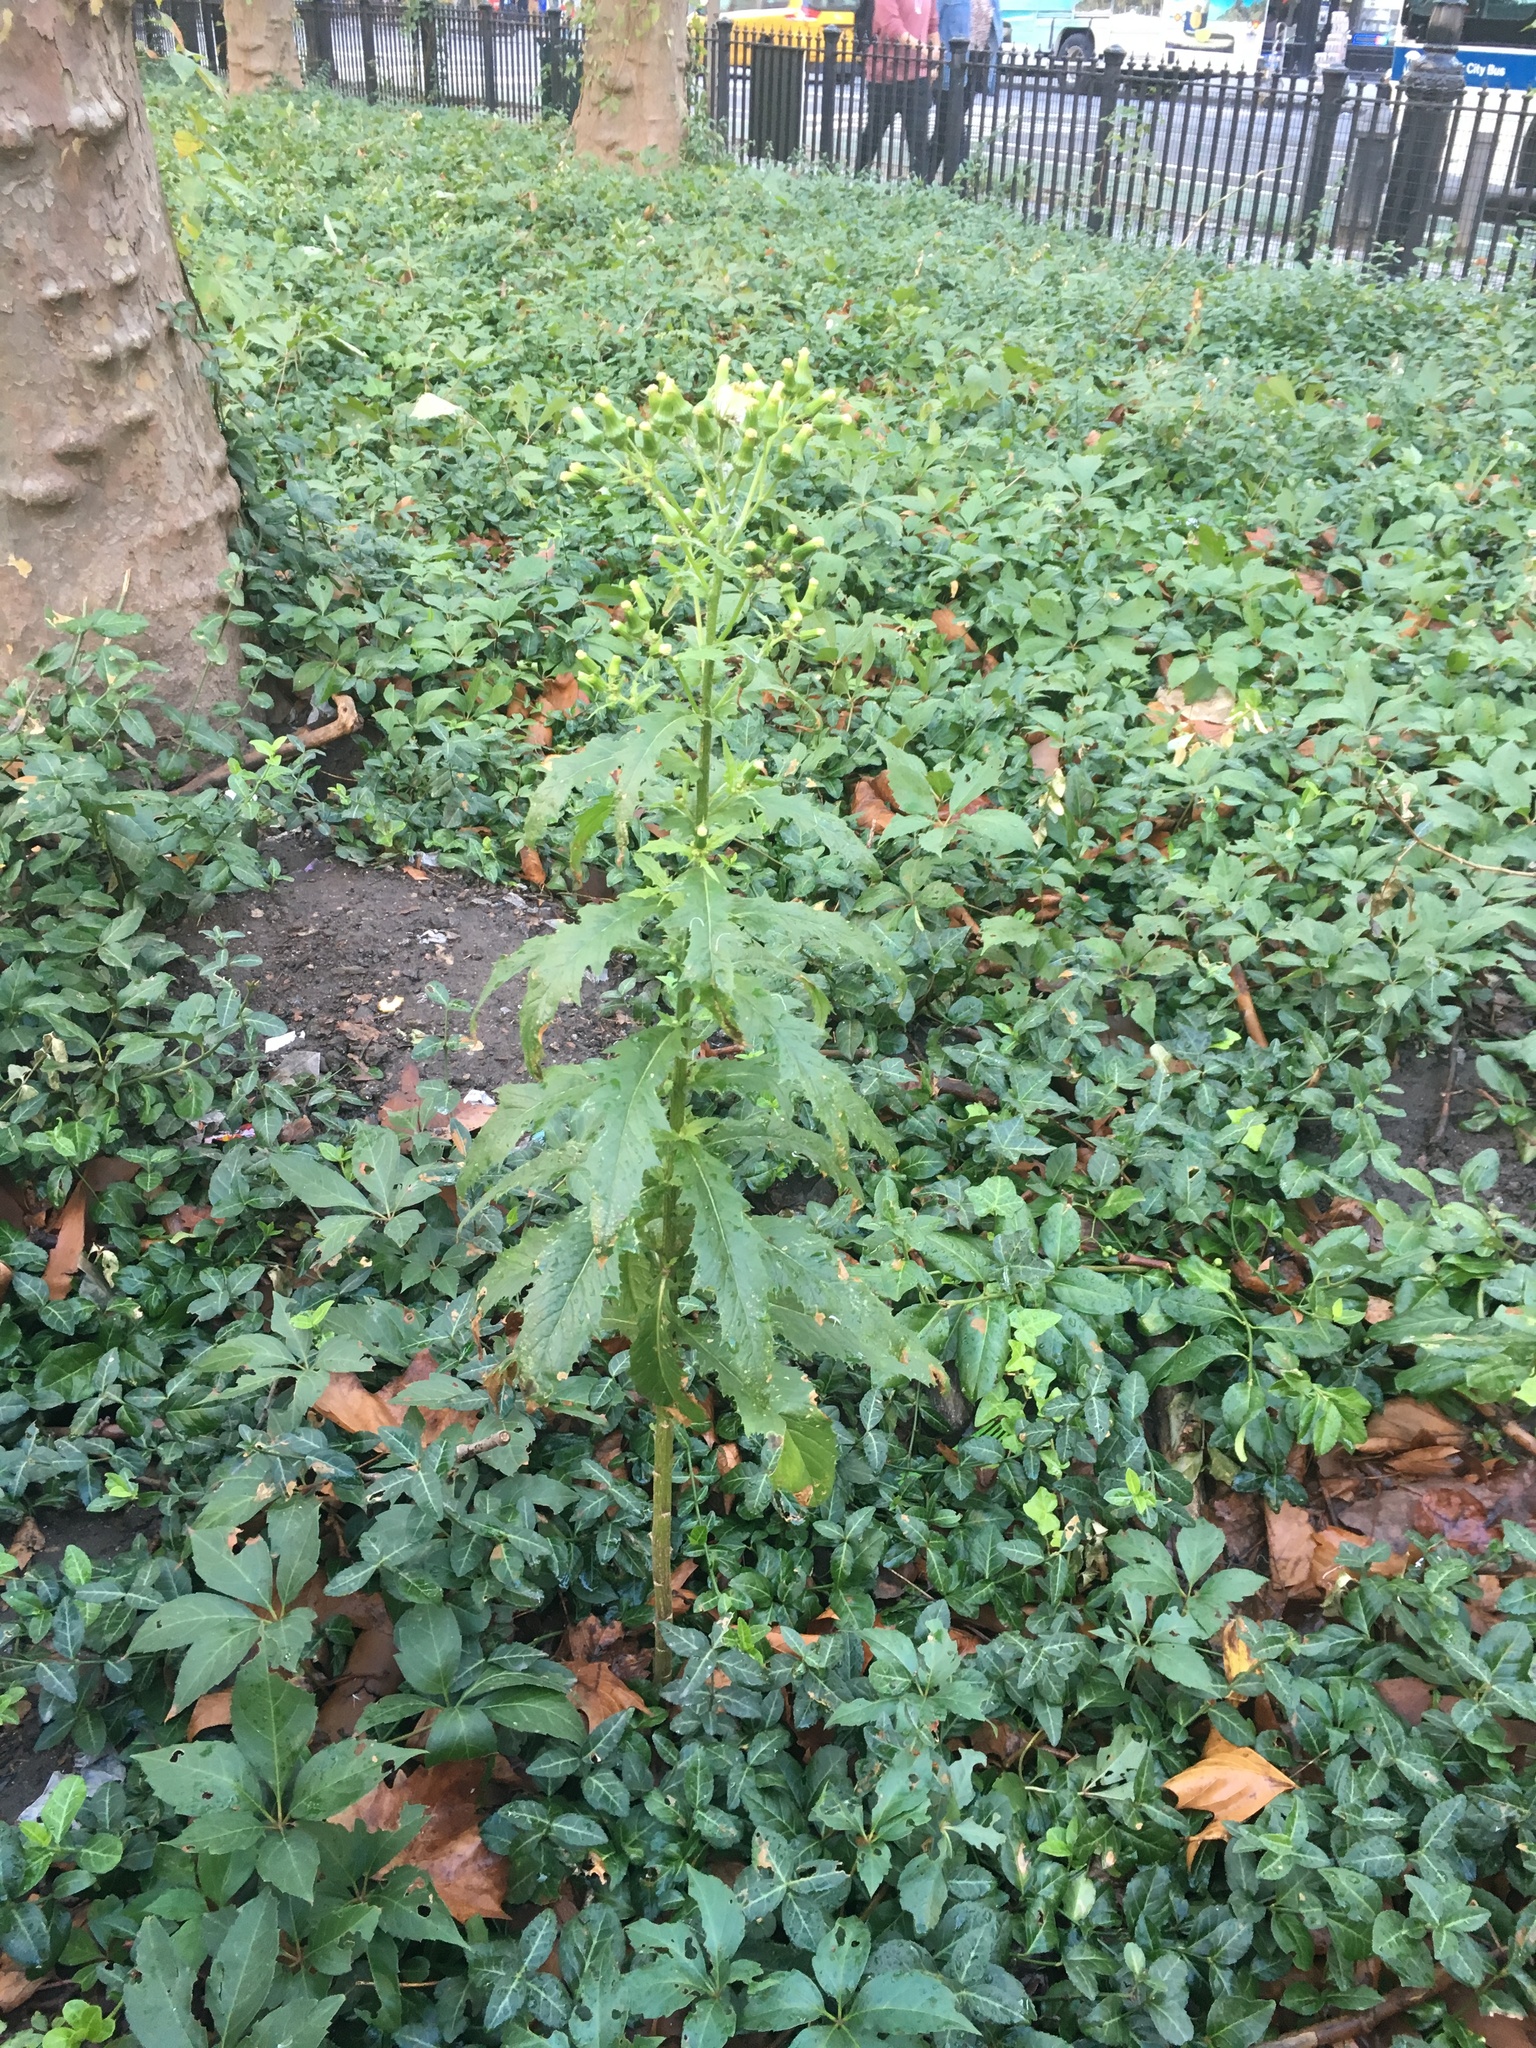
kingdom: Plantae
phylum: Tracheophyta
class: Magnoliopsida
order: Asterales
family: Asteraceae
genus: Erechtites
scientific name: Erechtites hieraciifolius
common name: American burnweed
